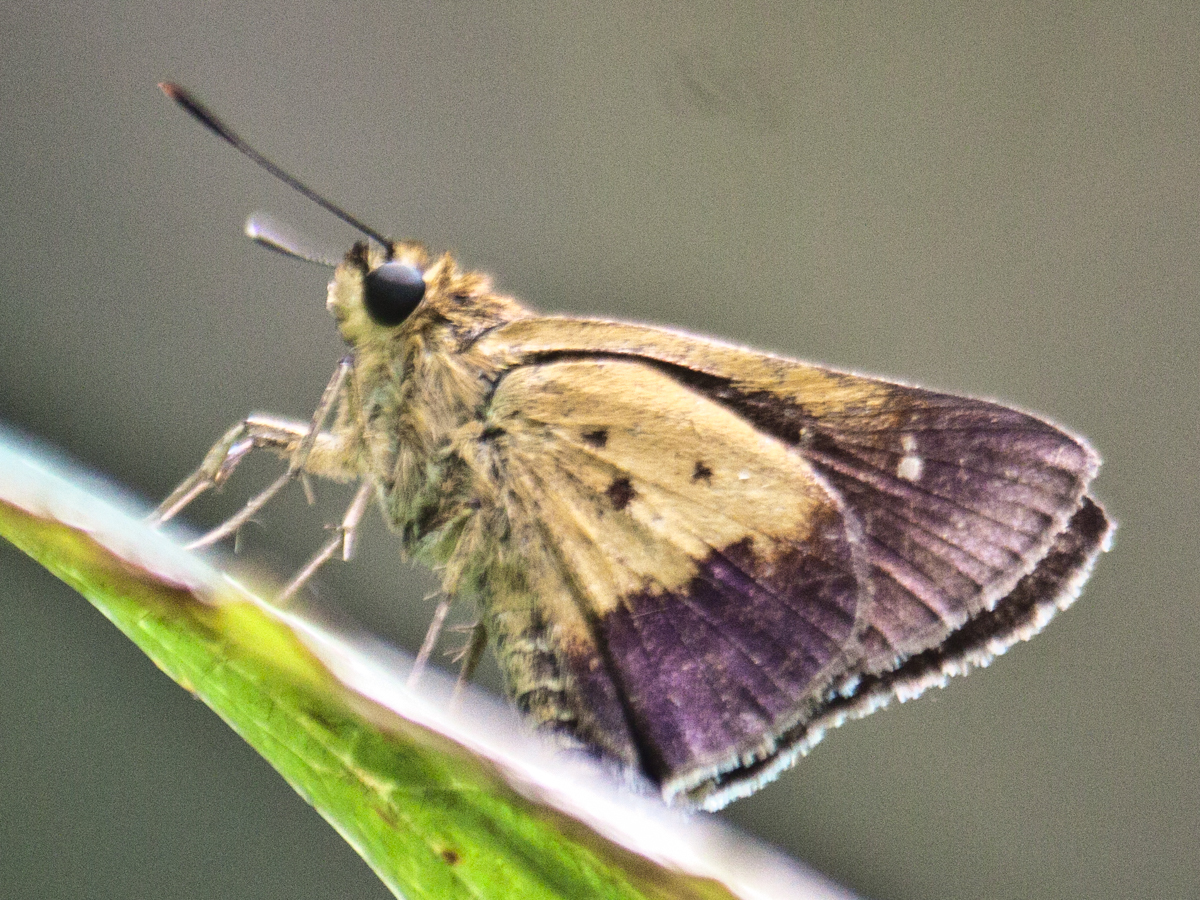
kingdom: Animalia
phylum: Arthropoda
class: Insecta
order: Lepidoptera
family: Hesperiidae
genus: Zographetus
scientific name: Zographetus satwa
